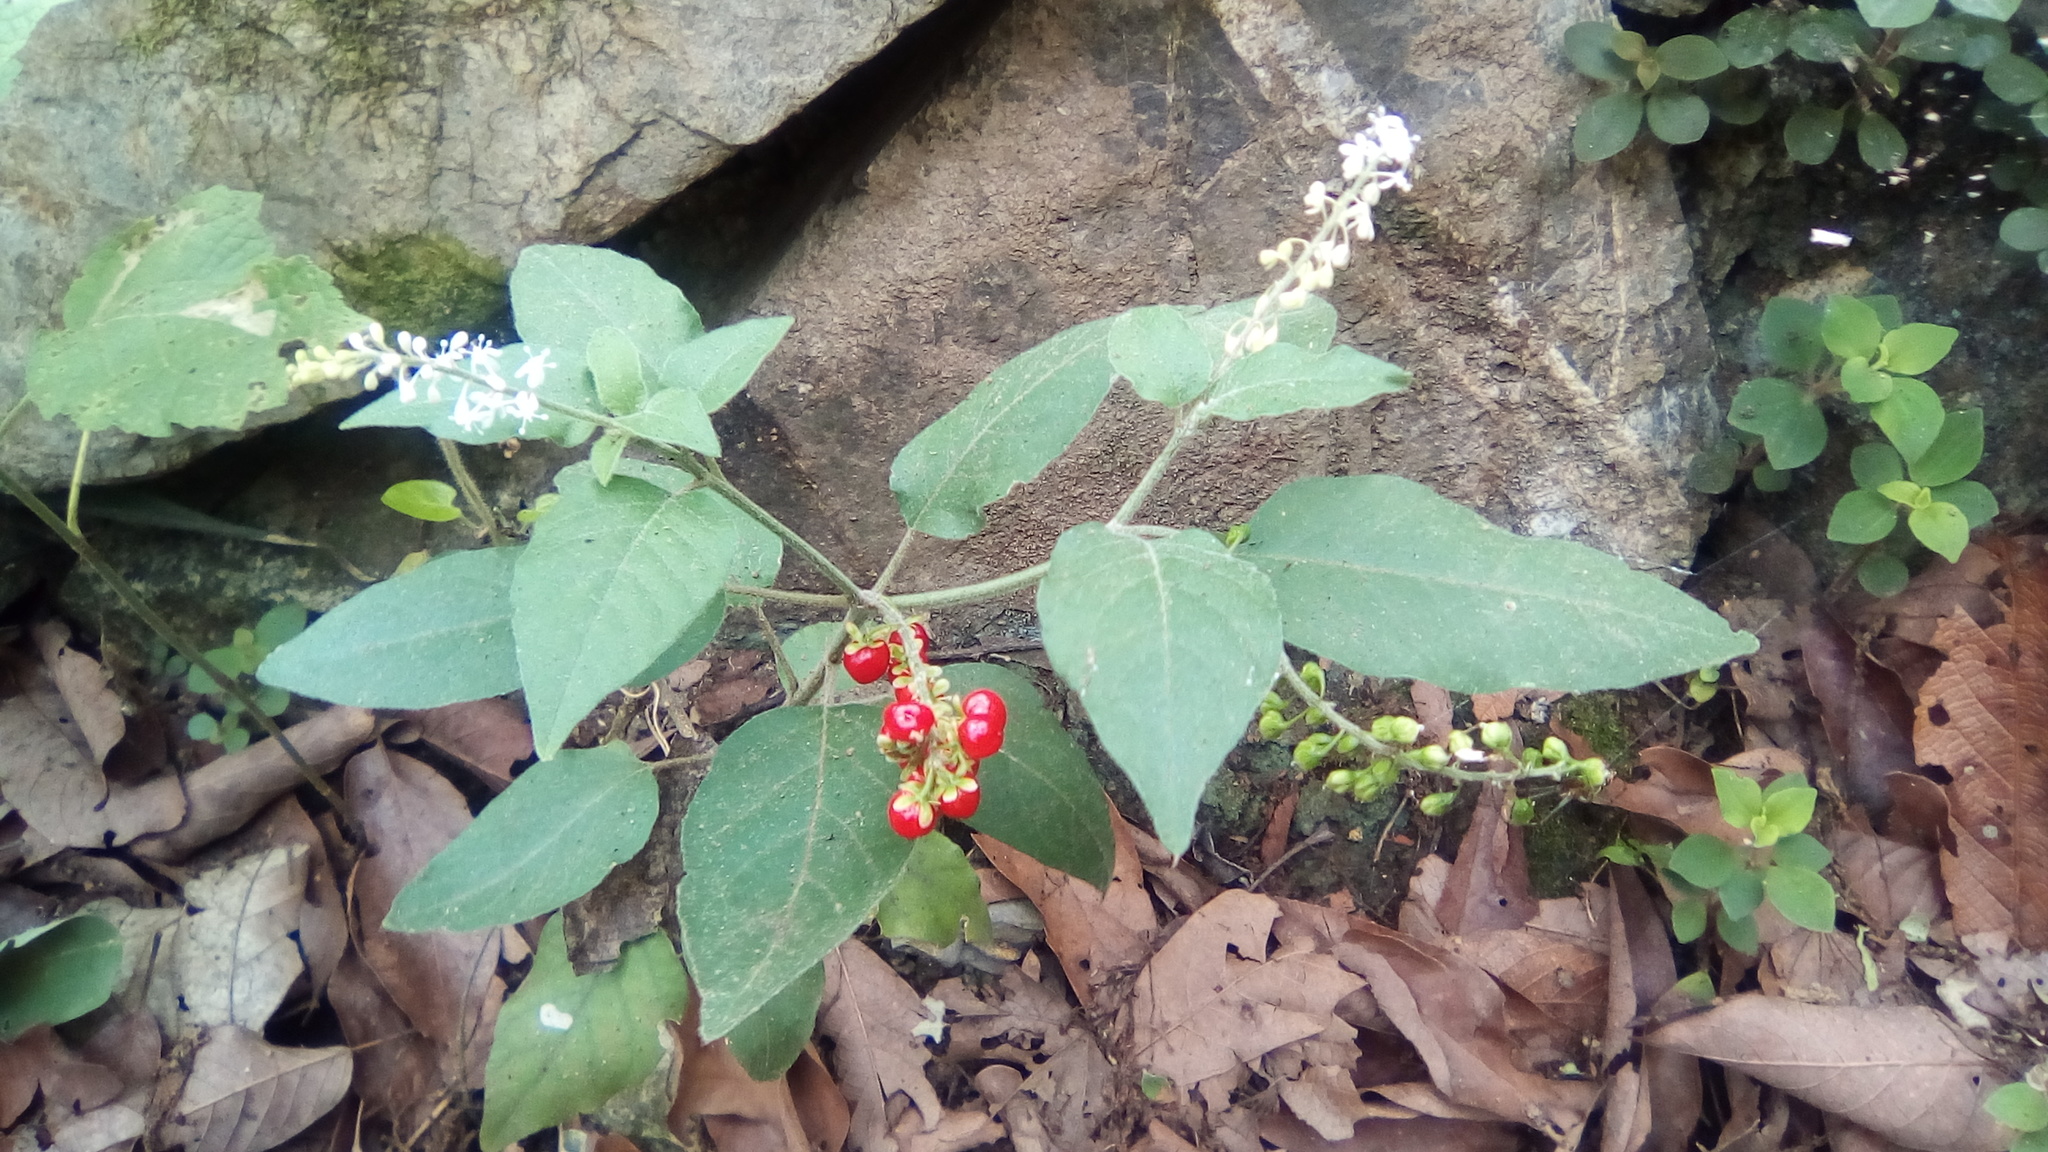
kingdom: Plantae
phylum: Tracheophyta
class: Magnoliopsida
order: Caryophyllales
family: Phytolaccaceae
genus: Rivina
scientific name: Rivina humilis
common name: Rougeplant
